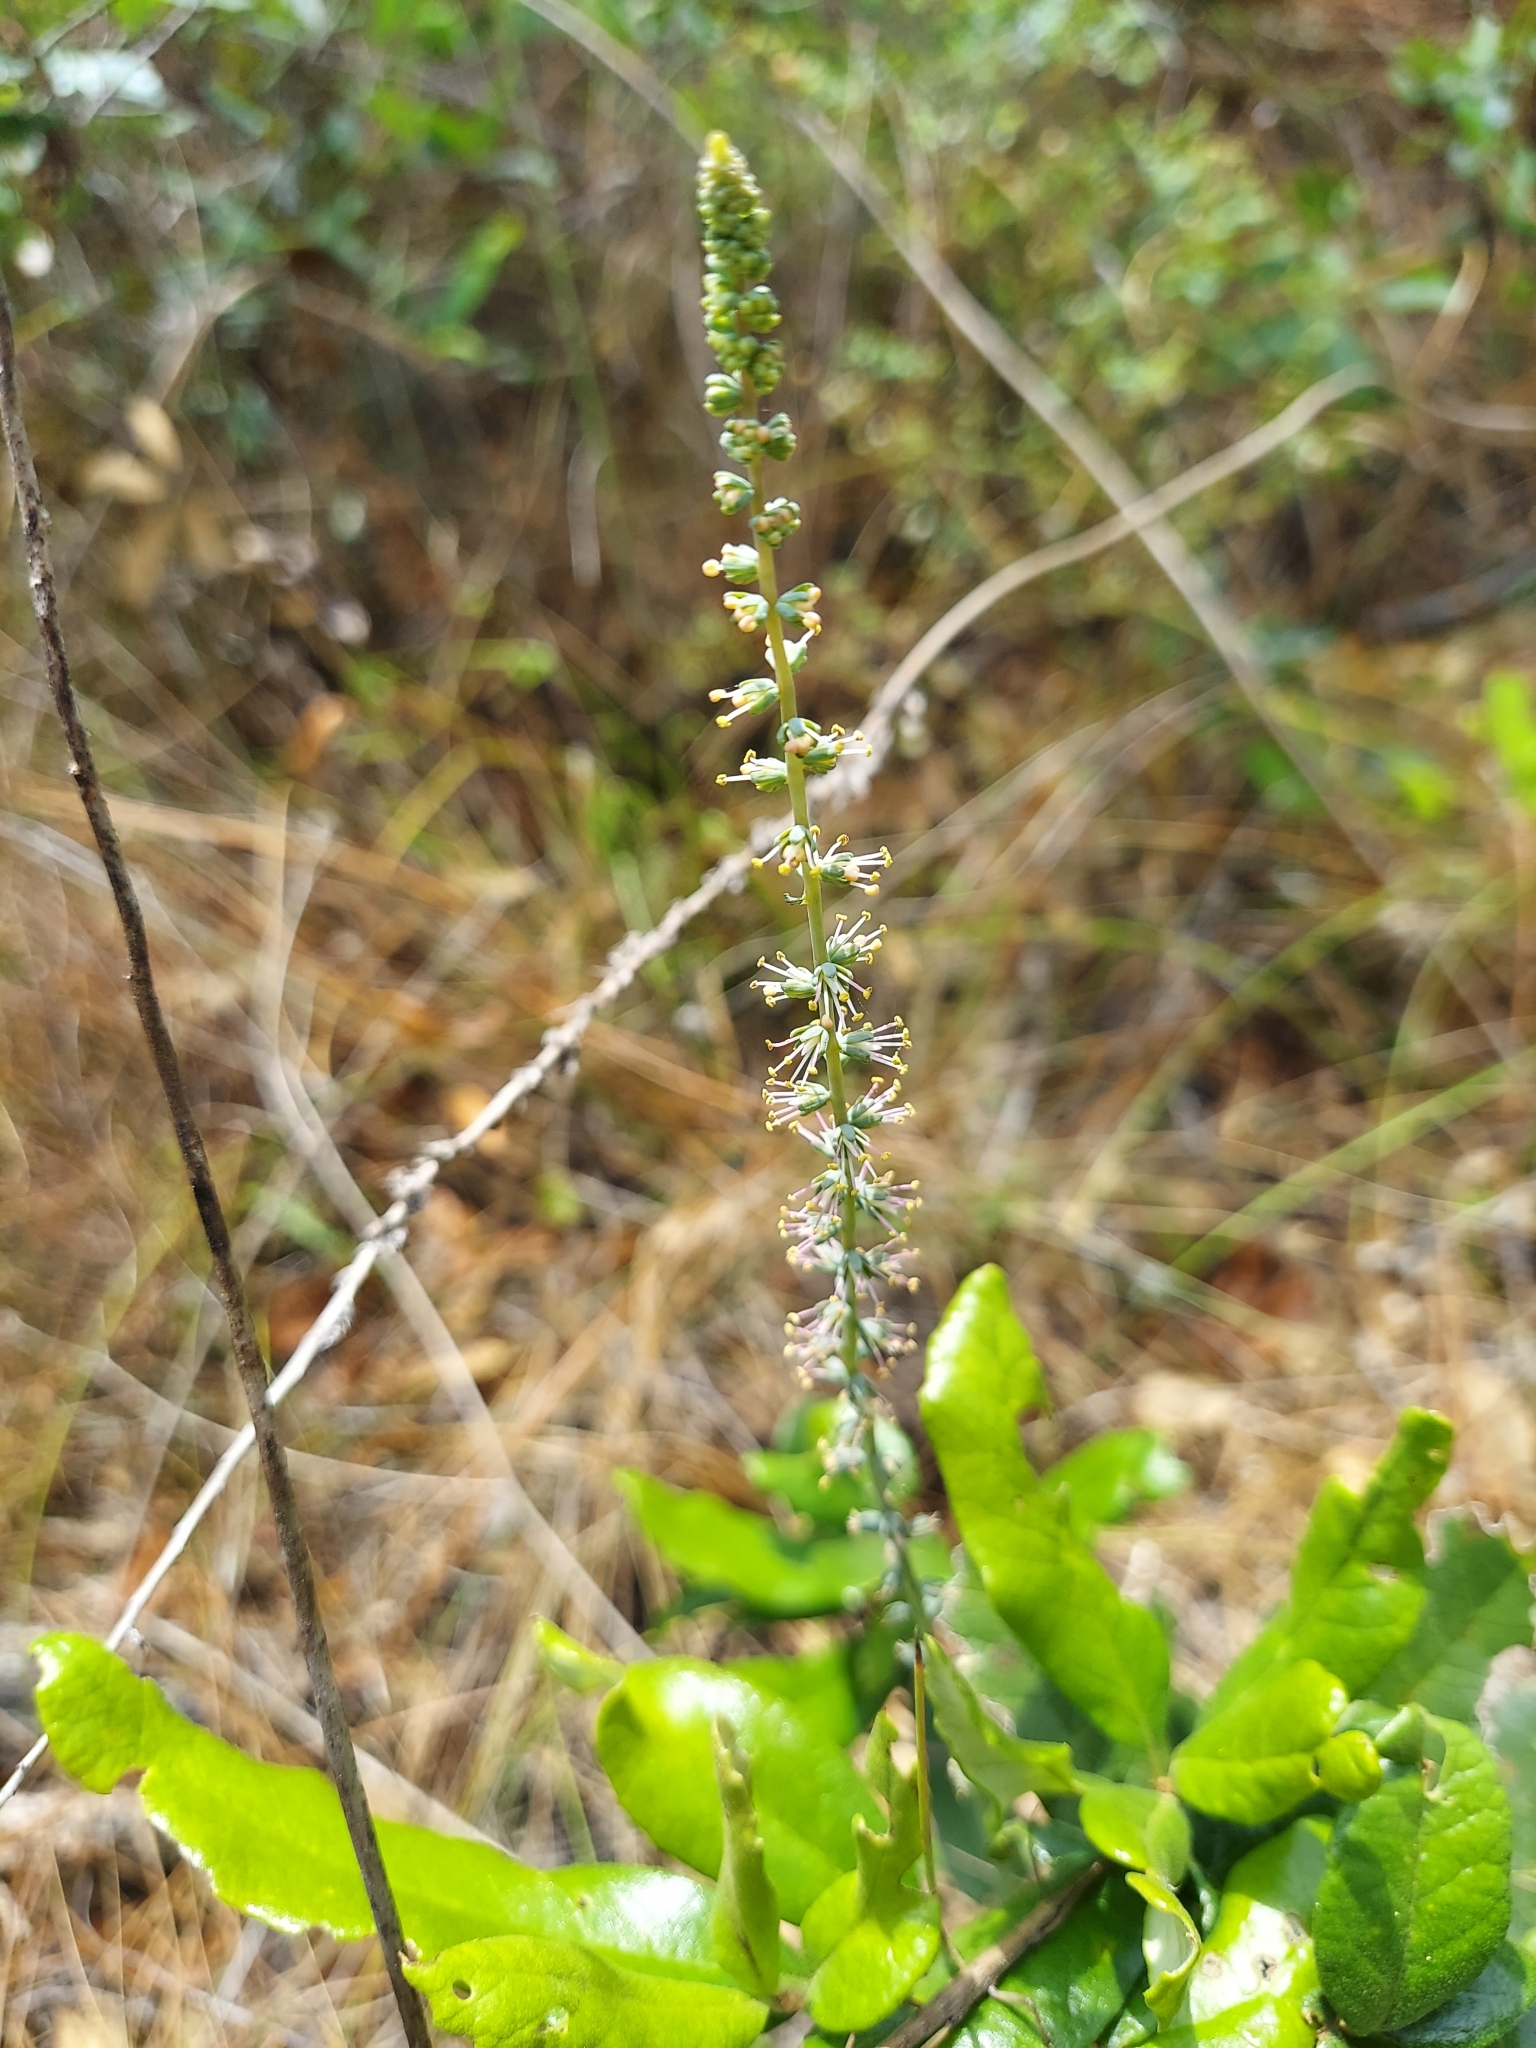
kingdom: Plantae
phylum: Tracheophyta
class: Liliopsida
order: Liliales
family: Melanthiaceae
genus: Schoenocaulon
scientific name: Schoenocaulon dubium
